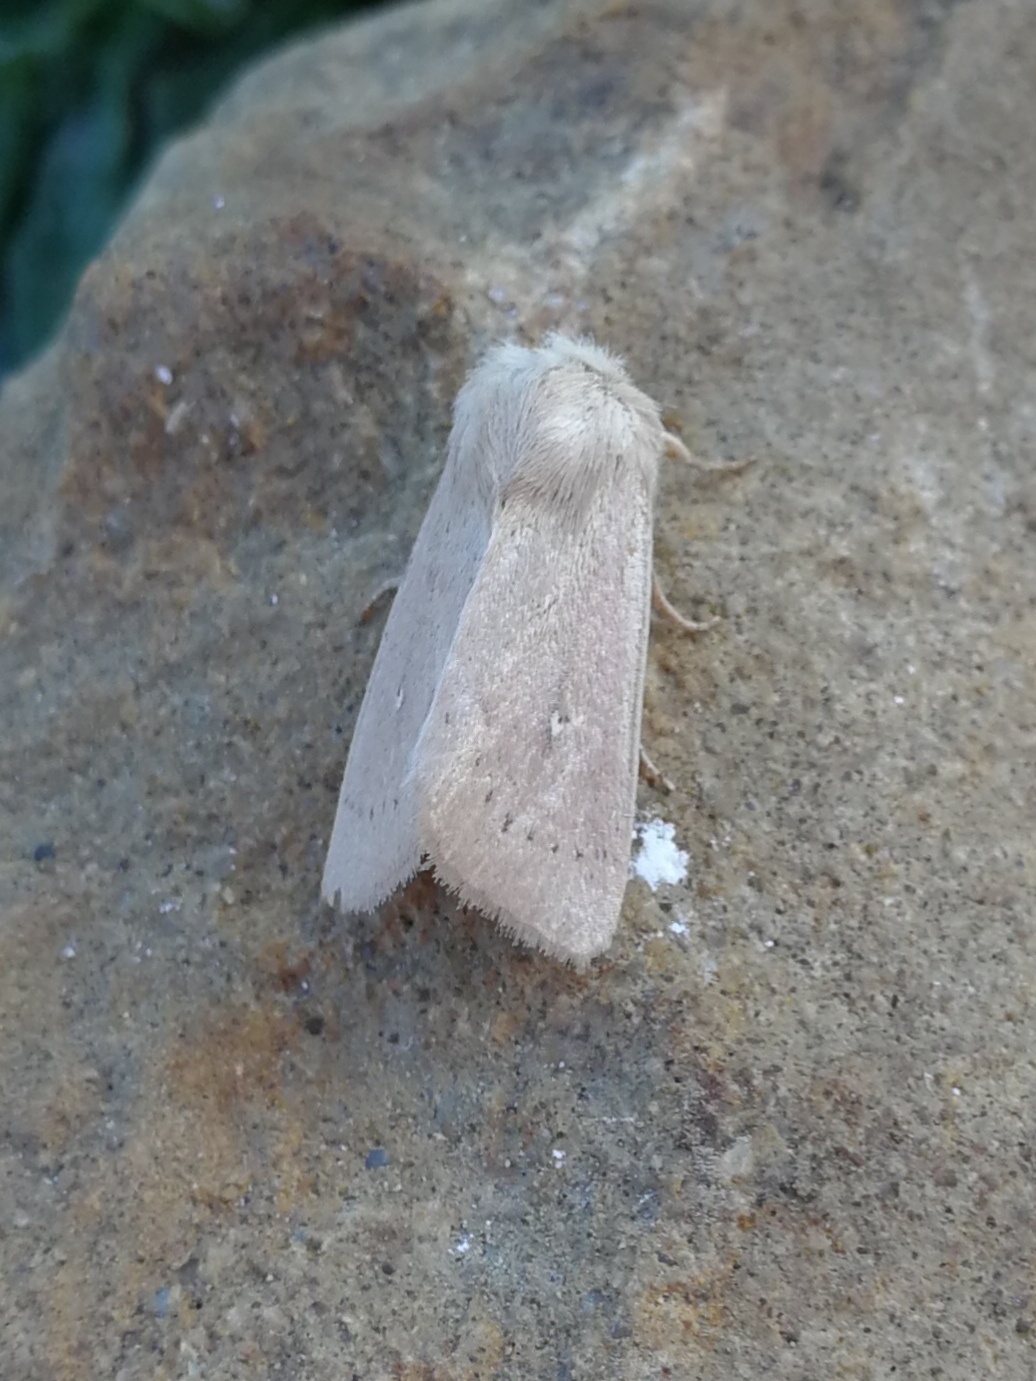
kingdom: Animalia
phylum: Arthropoda
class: Insecta
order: Lepidoptera
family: Noctuidae
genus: Mythimna
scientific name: Mythimna sicula
